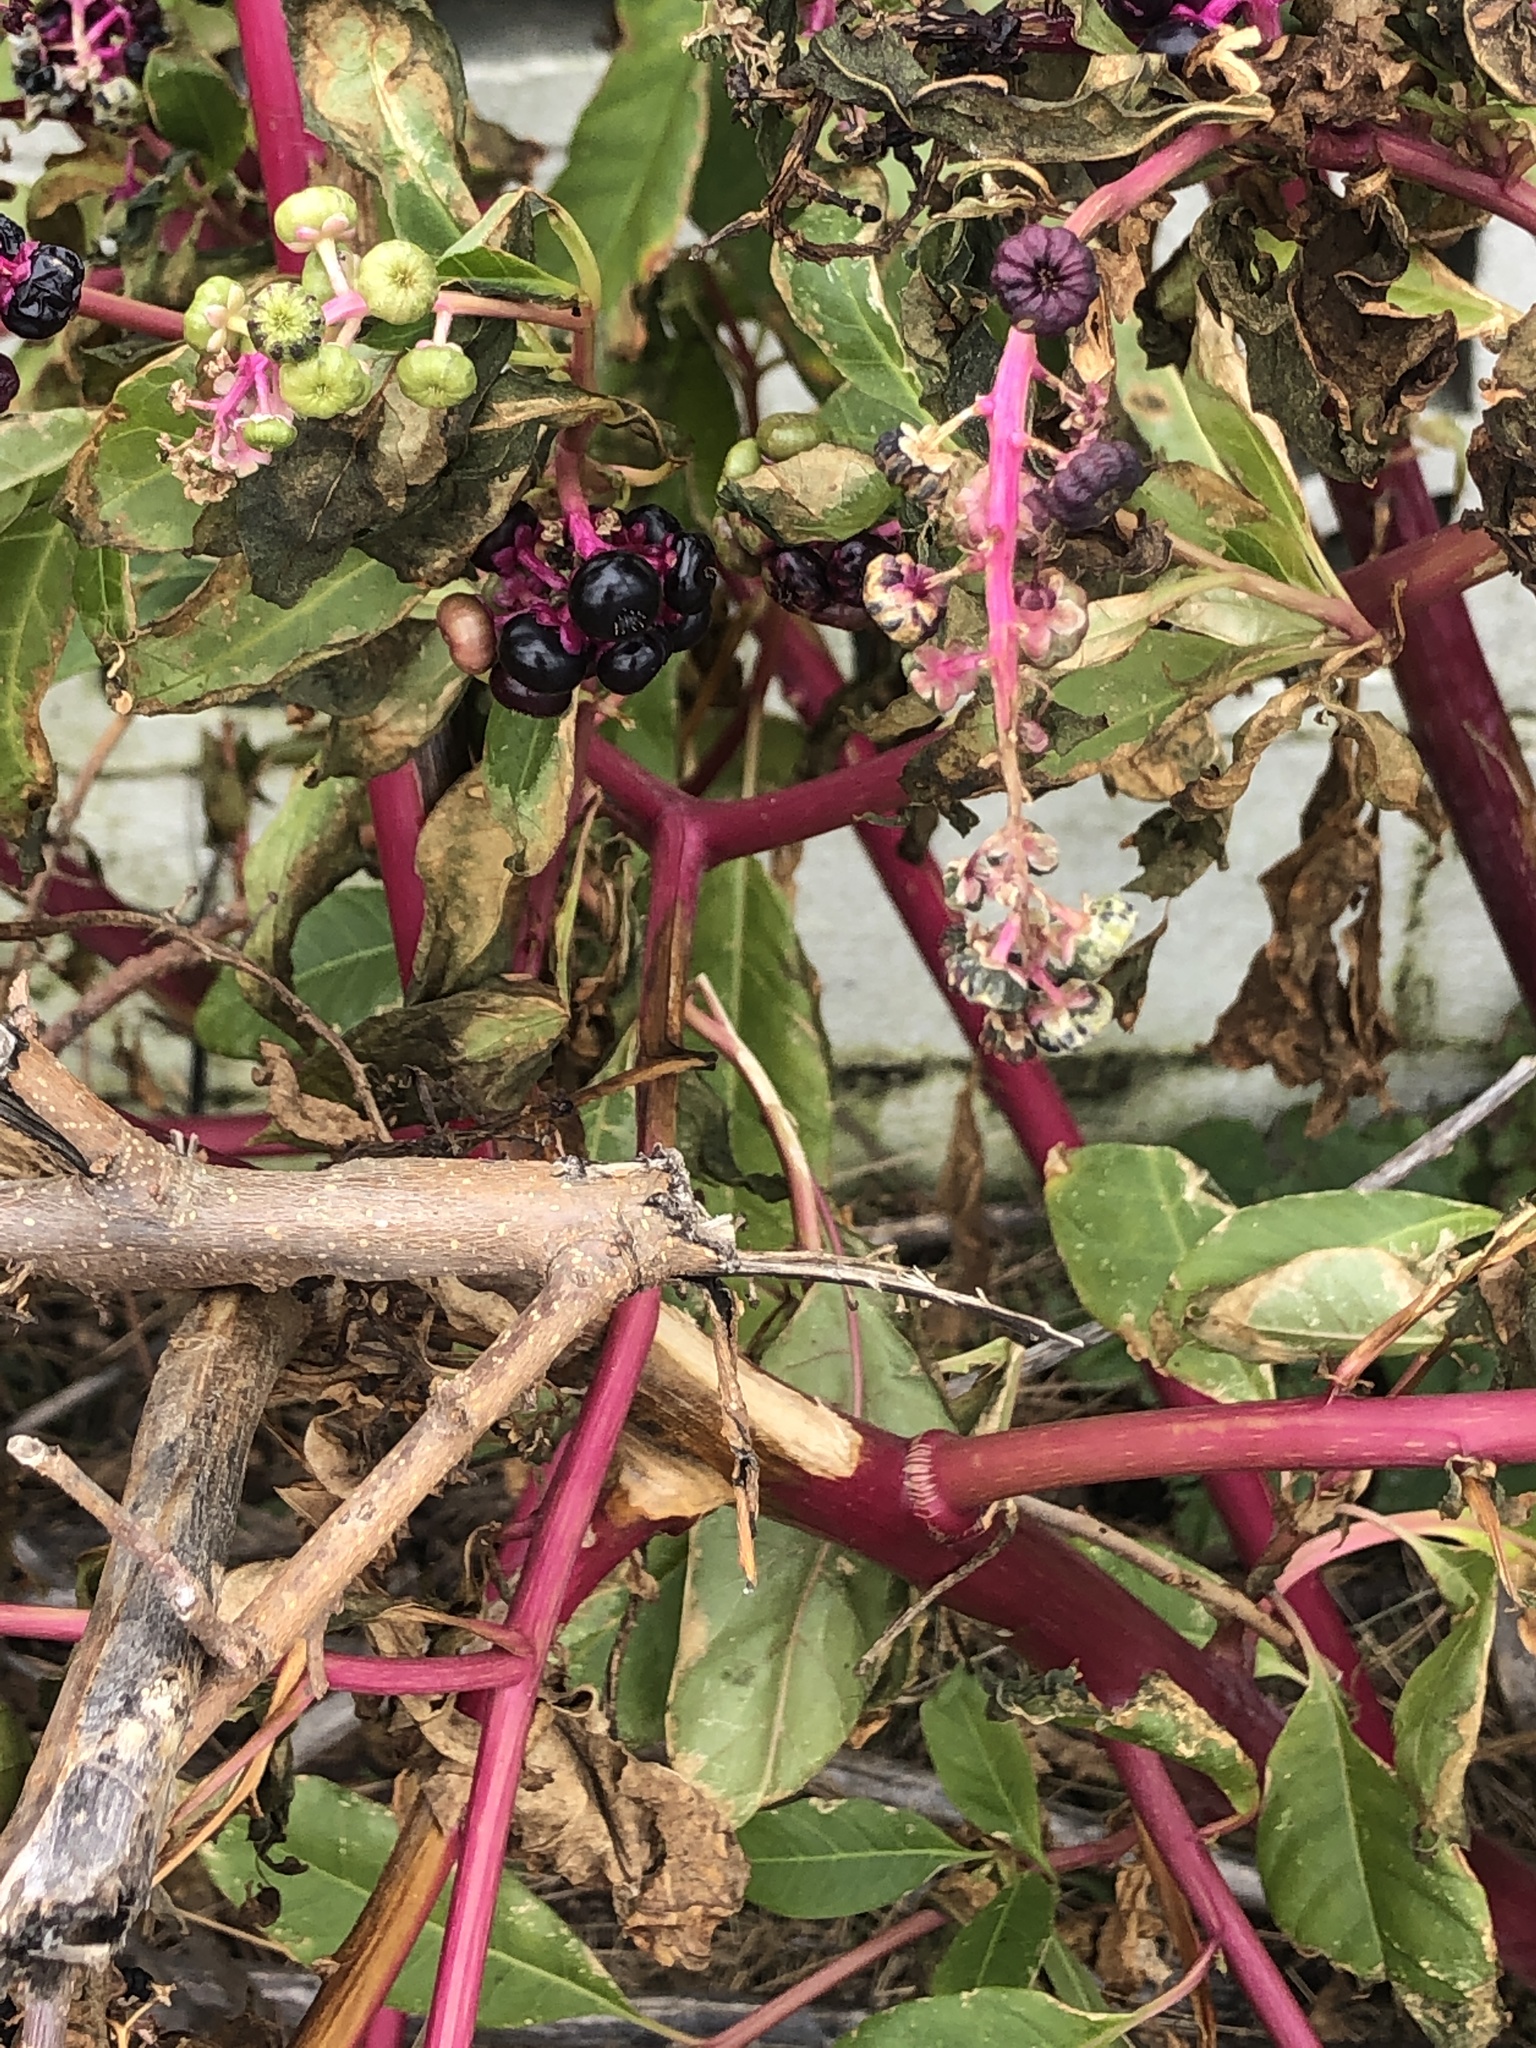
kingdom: Plantae
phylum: Tracheophyta
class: Magnoliopsida
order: Caryophyllales
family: Phytolaccaceae
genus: Phytolacca
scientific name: Phytolacca americana
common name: American pokeweed
